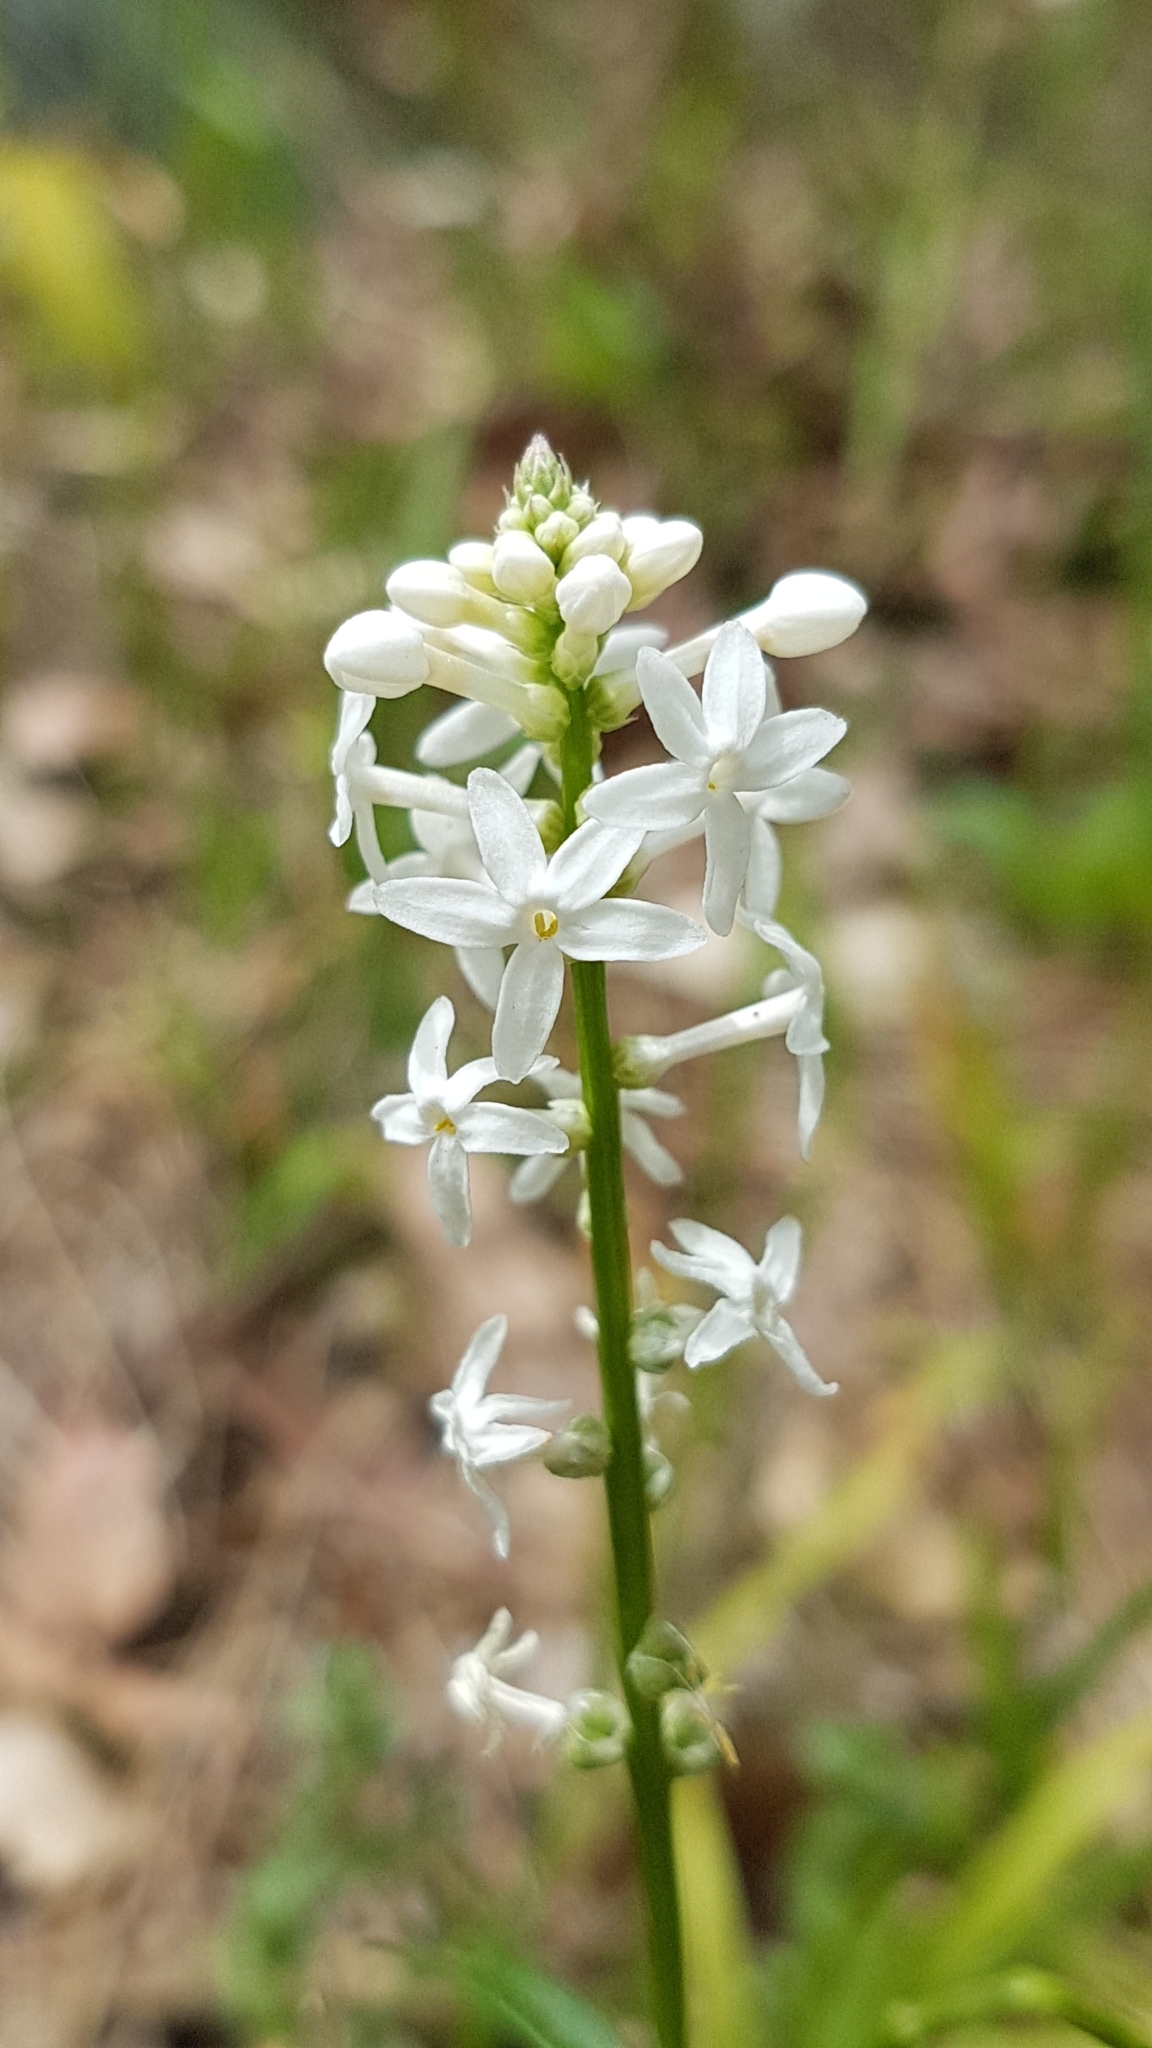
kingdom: Plantae
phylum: Tracheophyta
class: Magnoliopsida
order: Celastrales
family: Celastraceae
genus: Stackhousia
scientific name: Stackhousia monogyna
